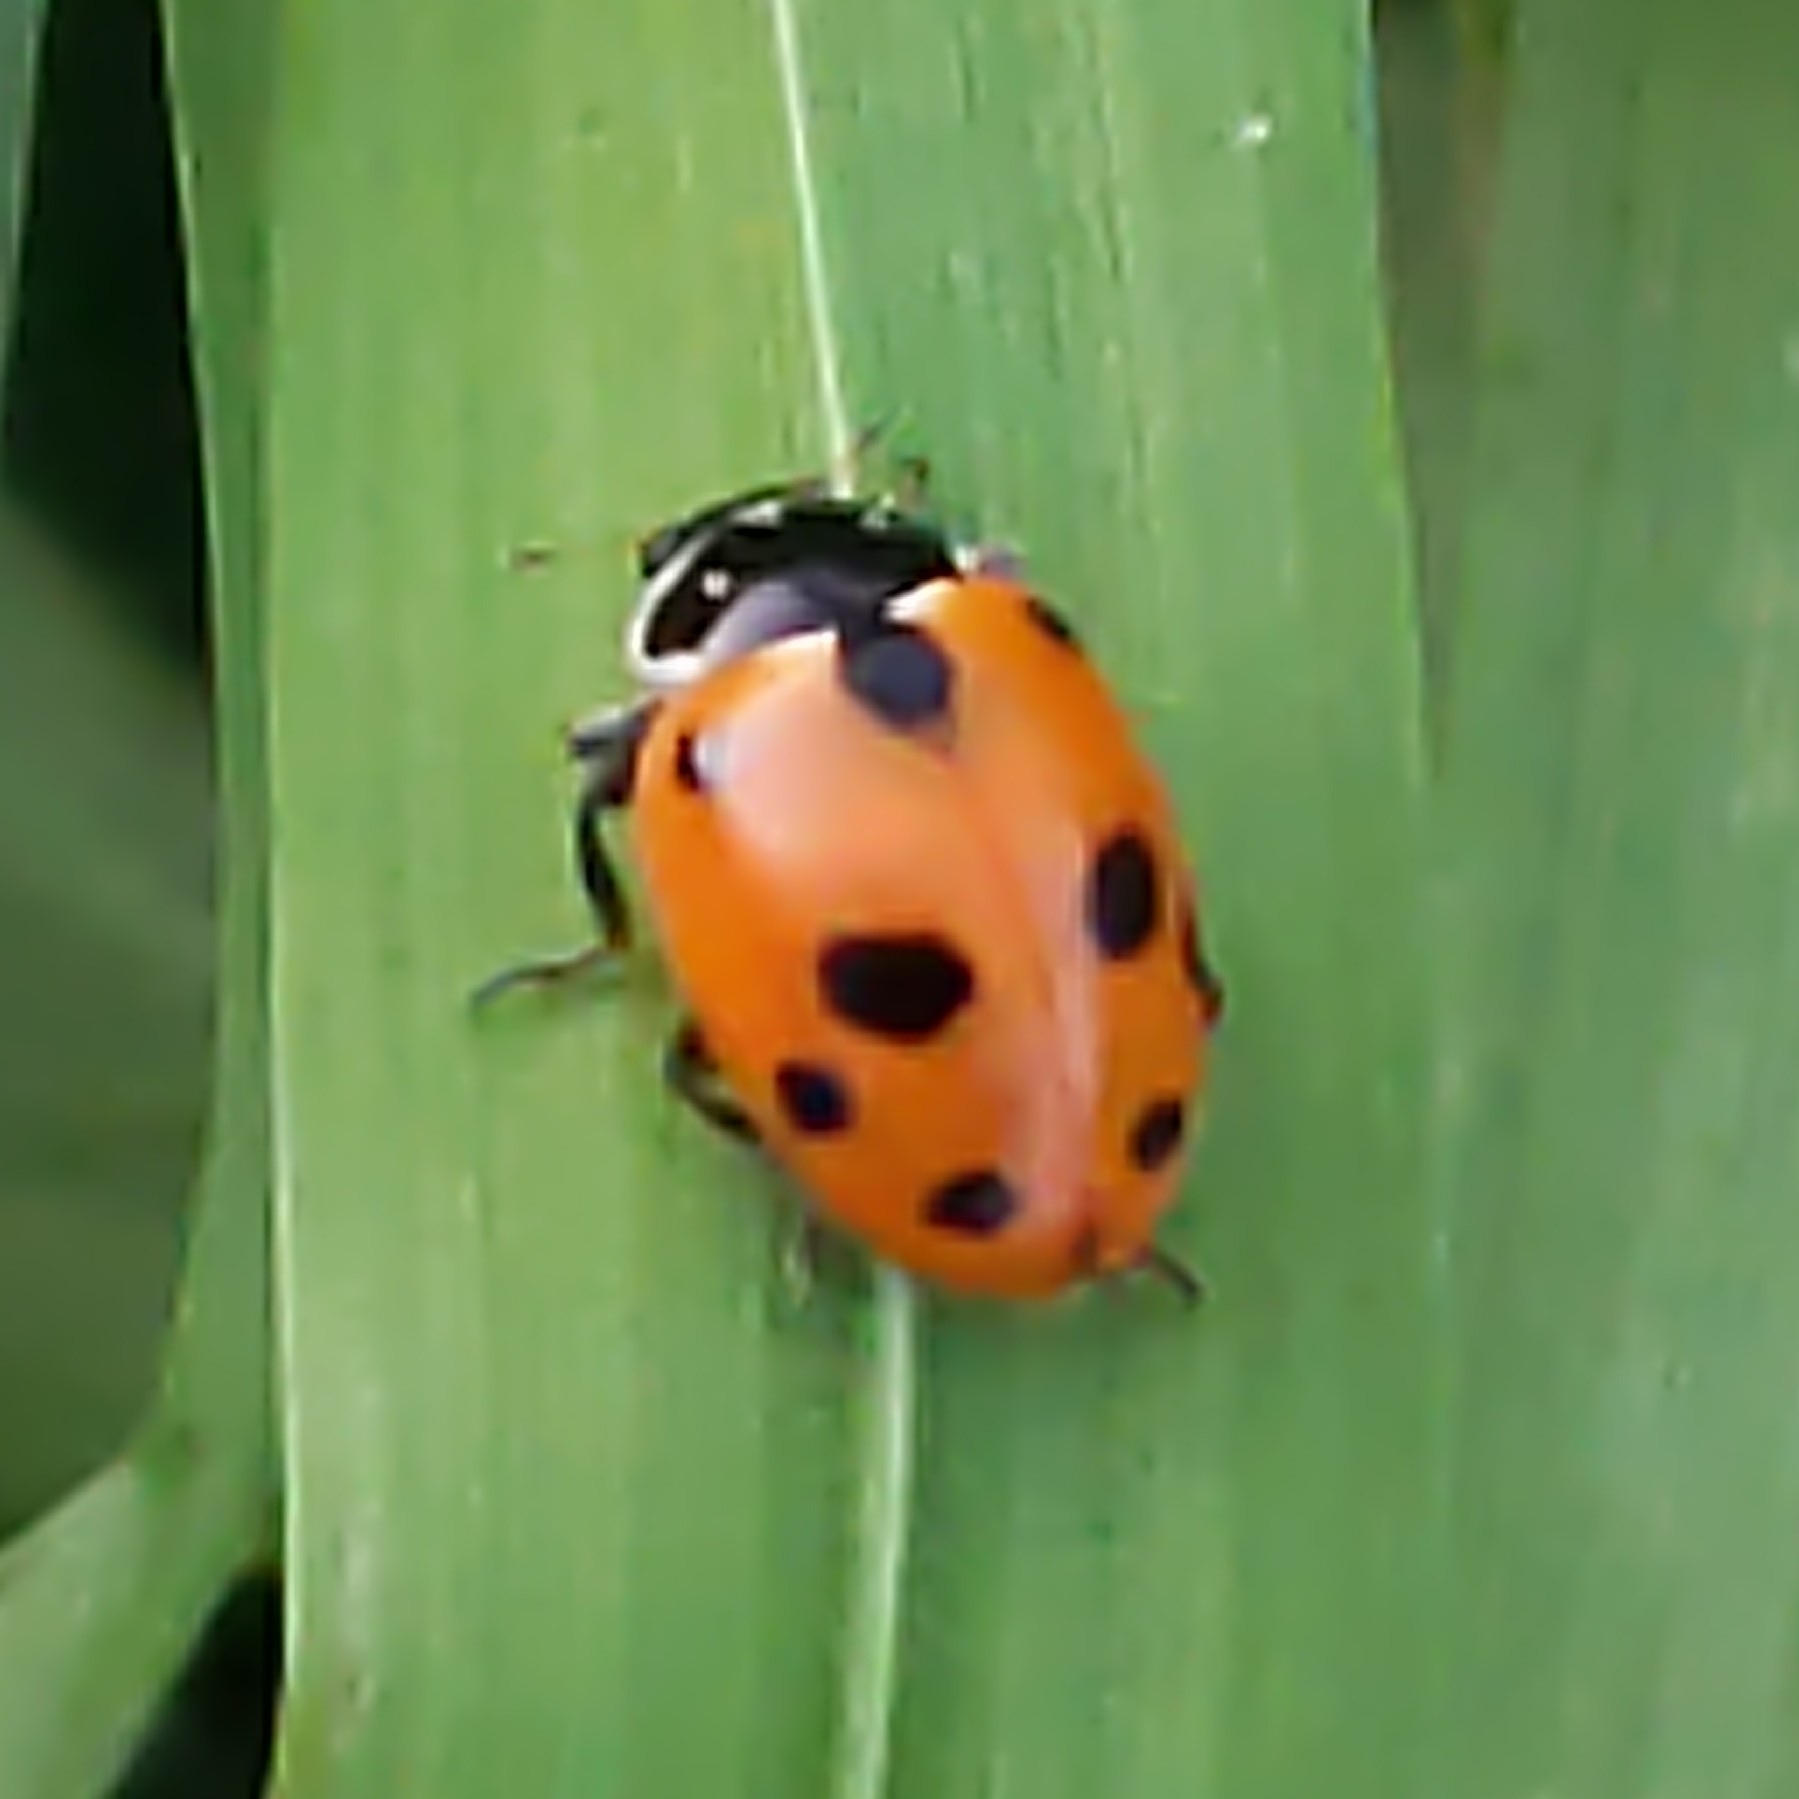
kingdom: Animalia
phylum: Arthropoda
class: Insecta
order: Coleoptera
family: Coccinellidae
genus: Hippodamia
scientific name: Hippodamia variegata
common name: Ladybird beetle
